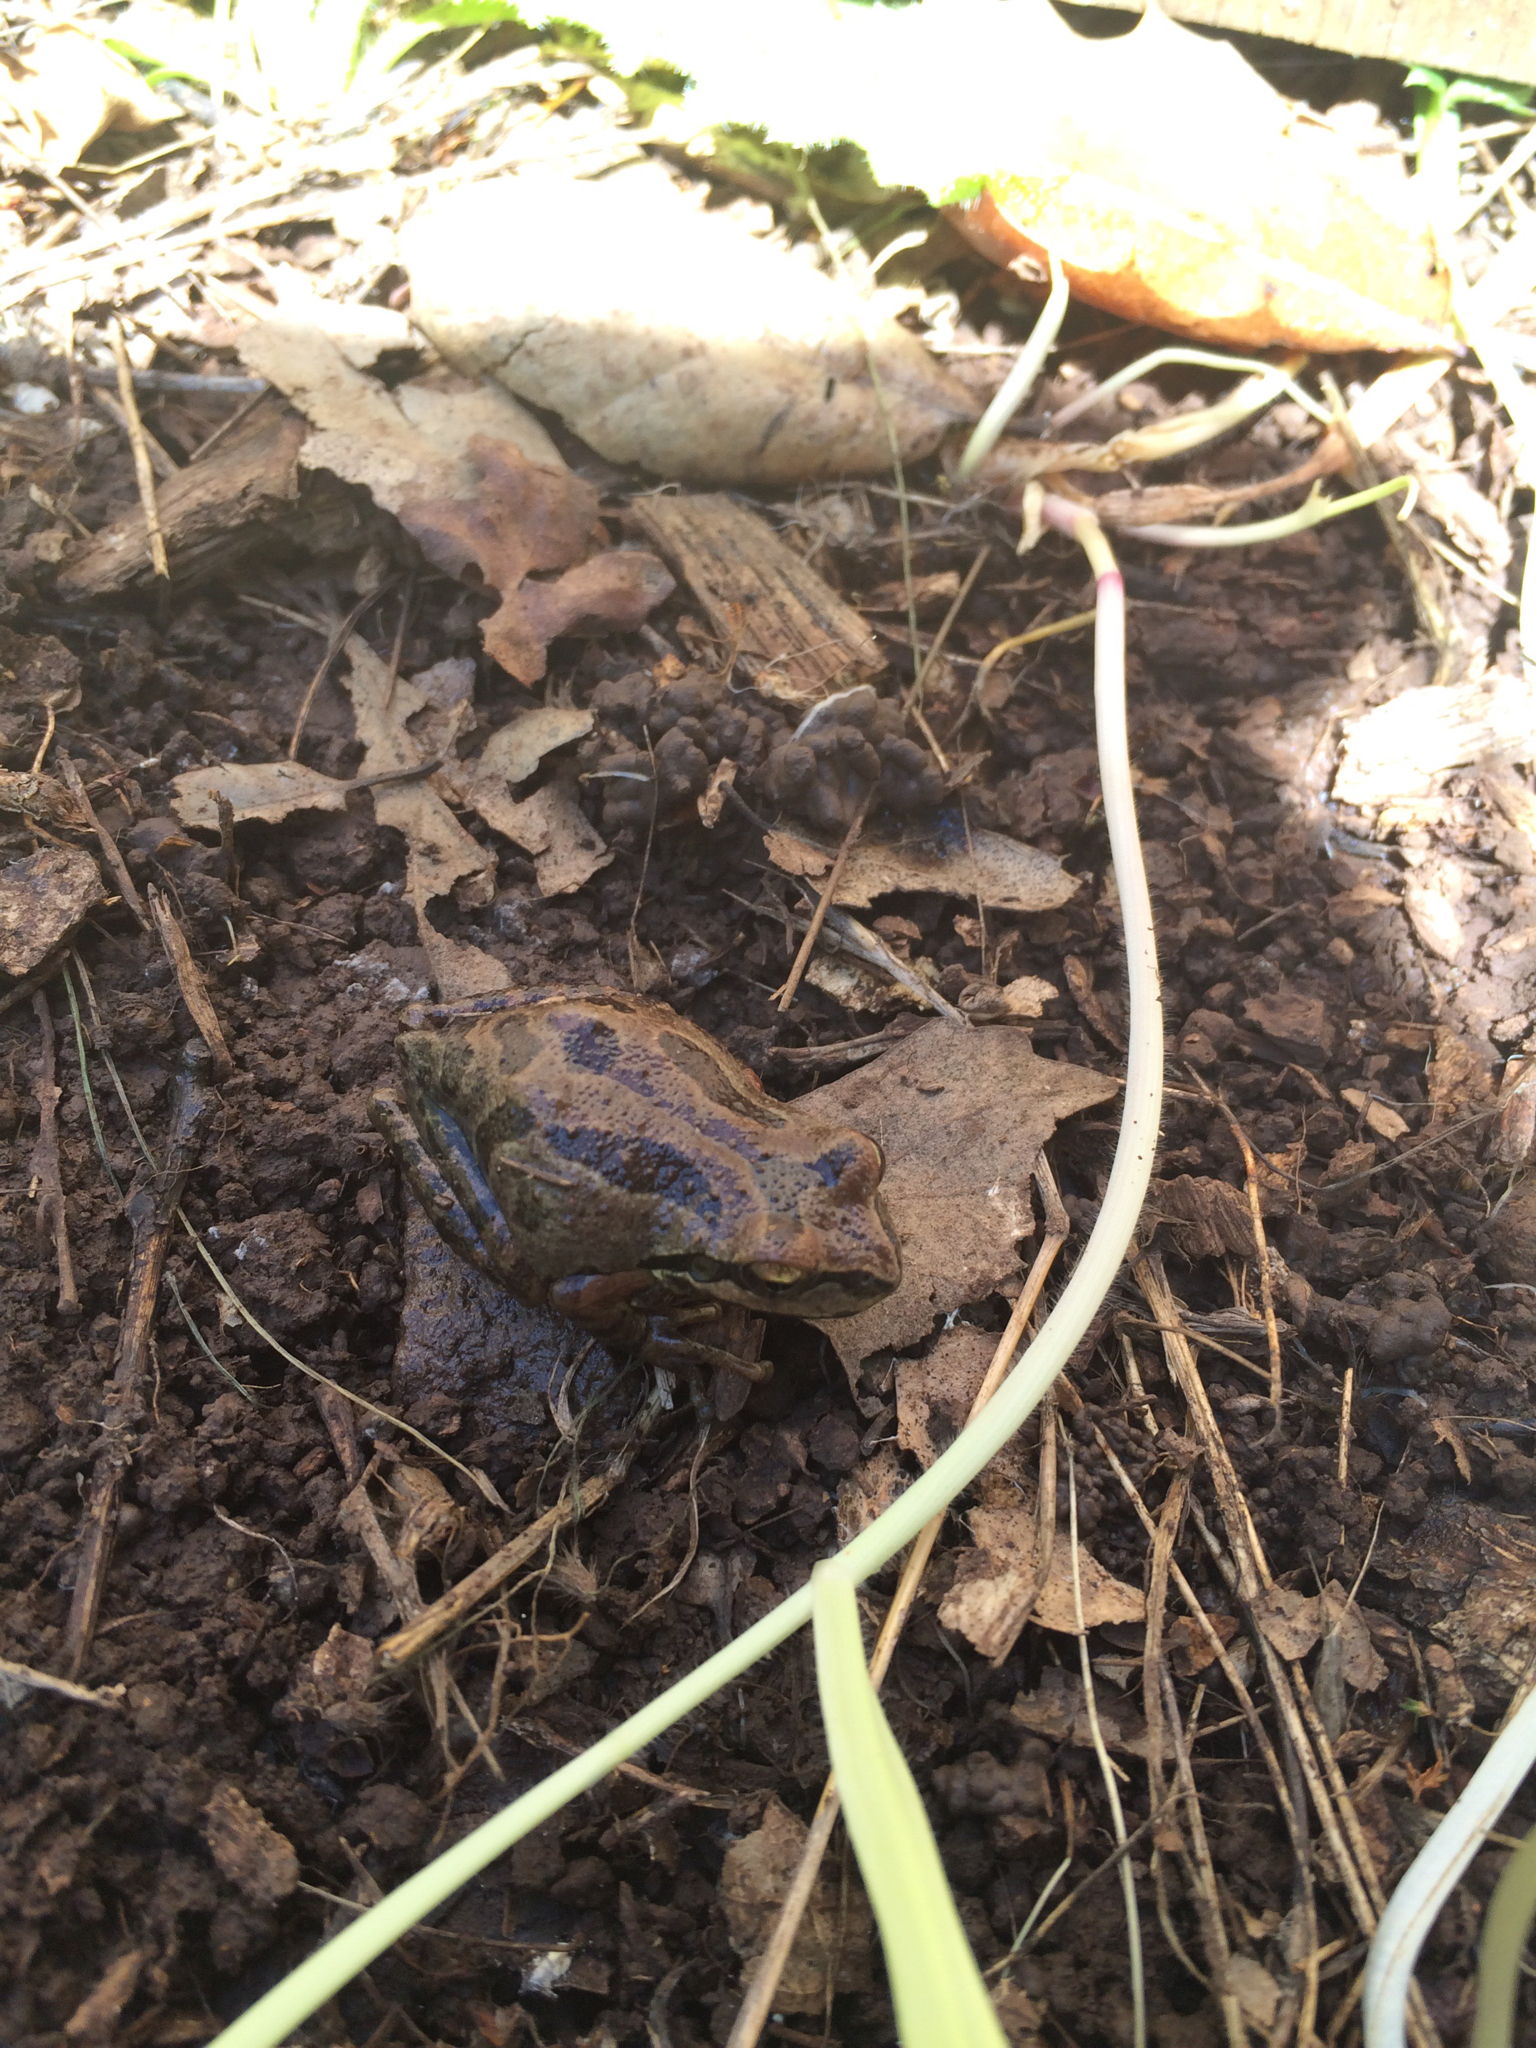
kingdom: Animalia
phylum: Chordata
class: Amphibia
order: Anura
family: Hylidae
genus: Pseudacris
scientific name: Pseudacris regilla
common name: Pacific chorus frog
